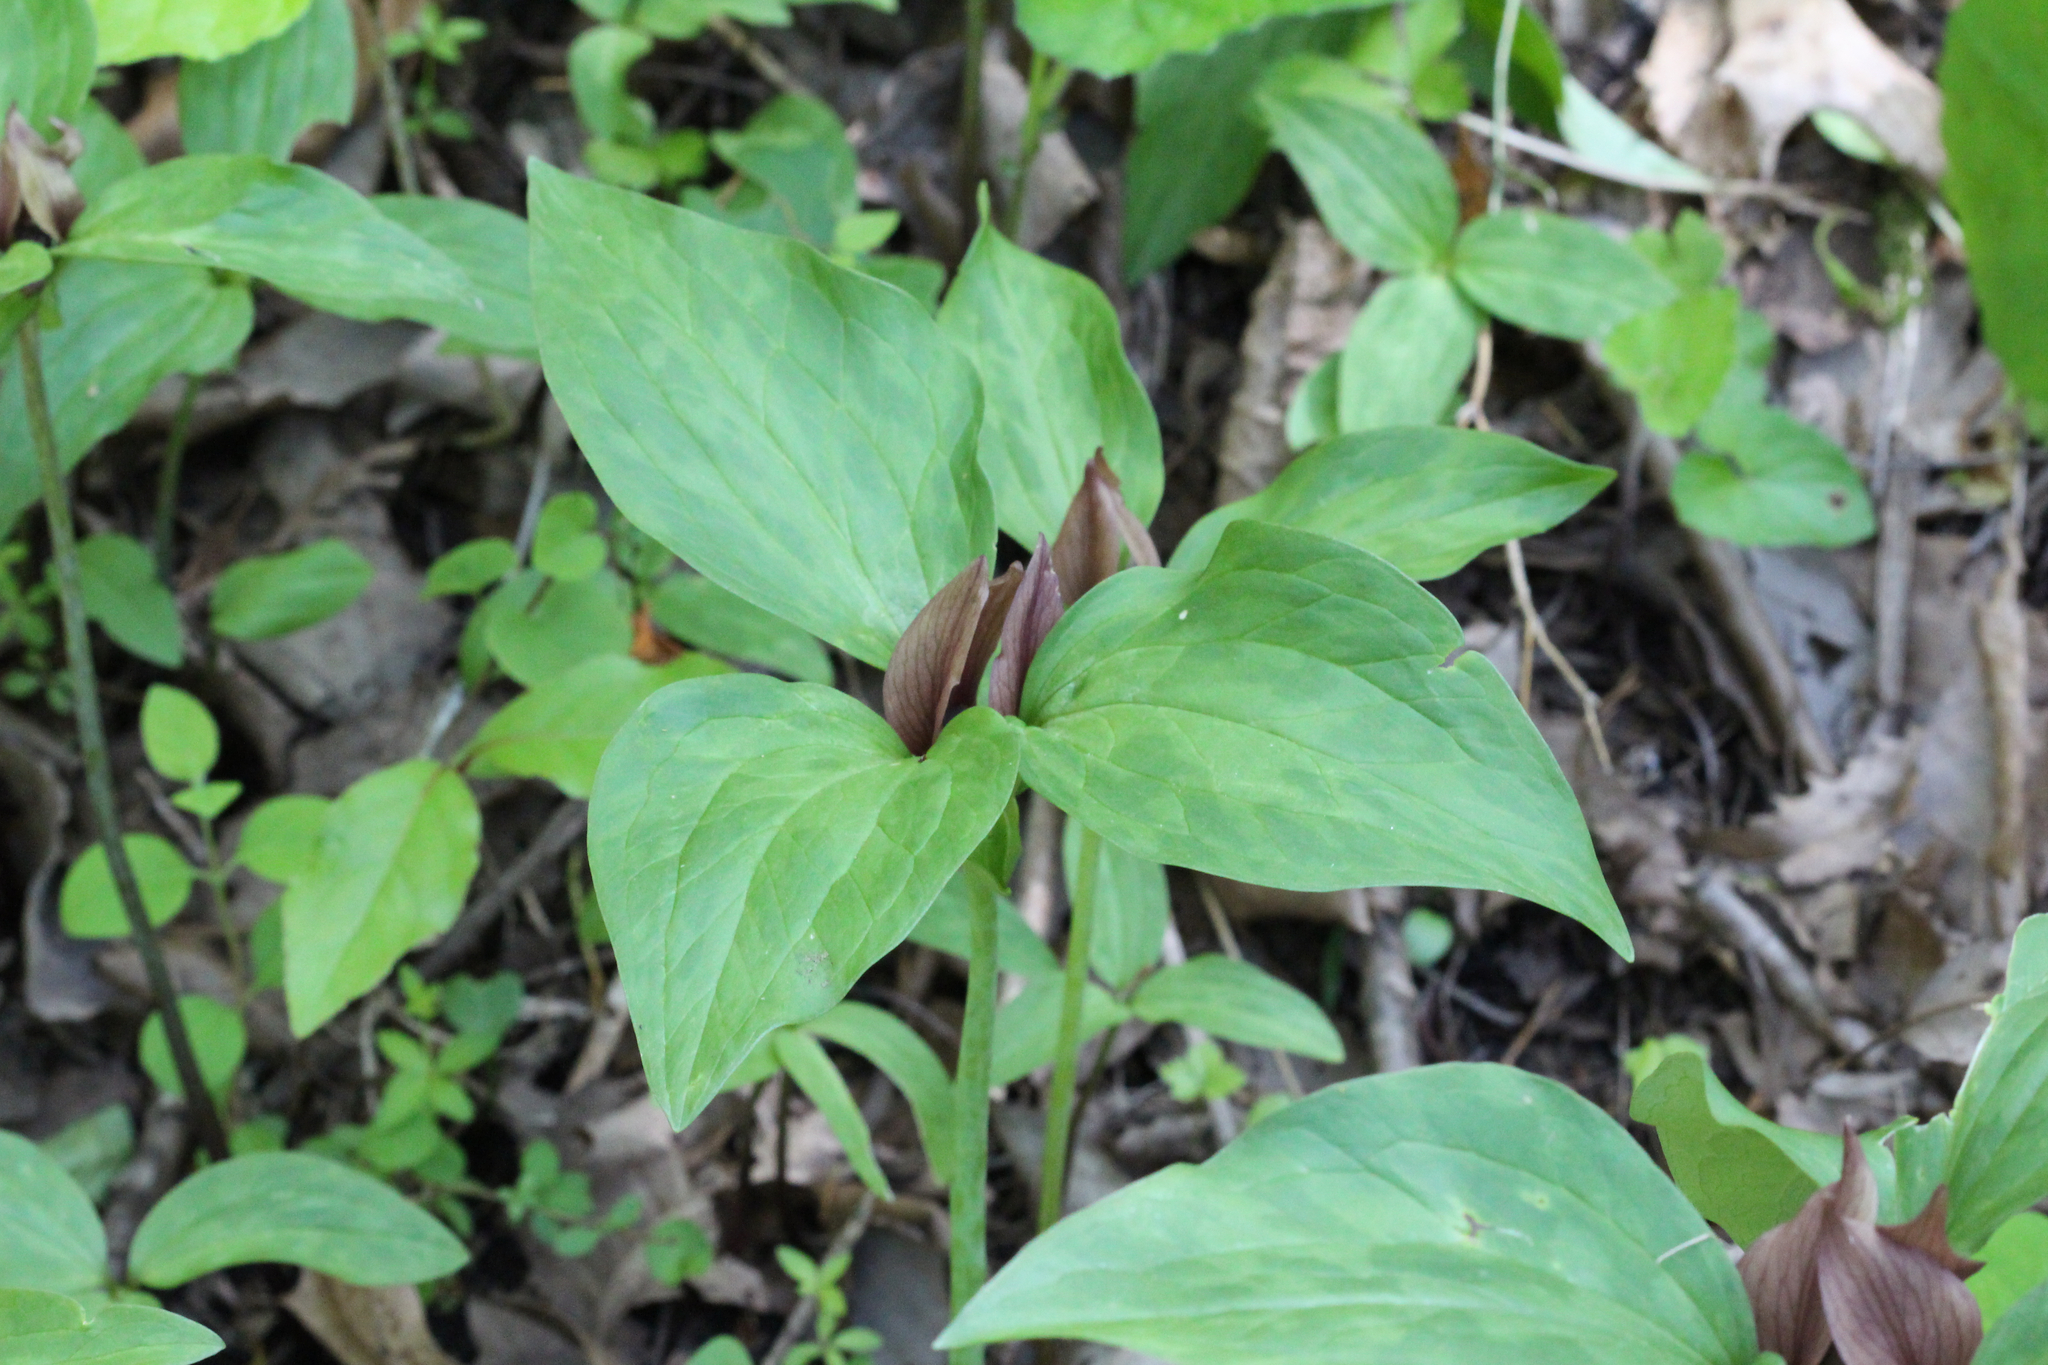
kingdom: Plantae
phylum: Tracheophyta
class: Liliopsida
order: Liliales
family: Melanthiaceae
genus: Trillium
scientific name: Trillium recurvatum
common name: Bloody butcher
